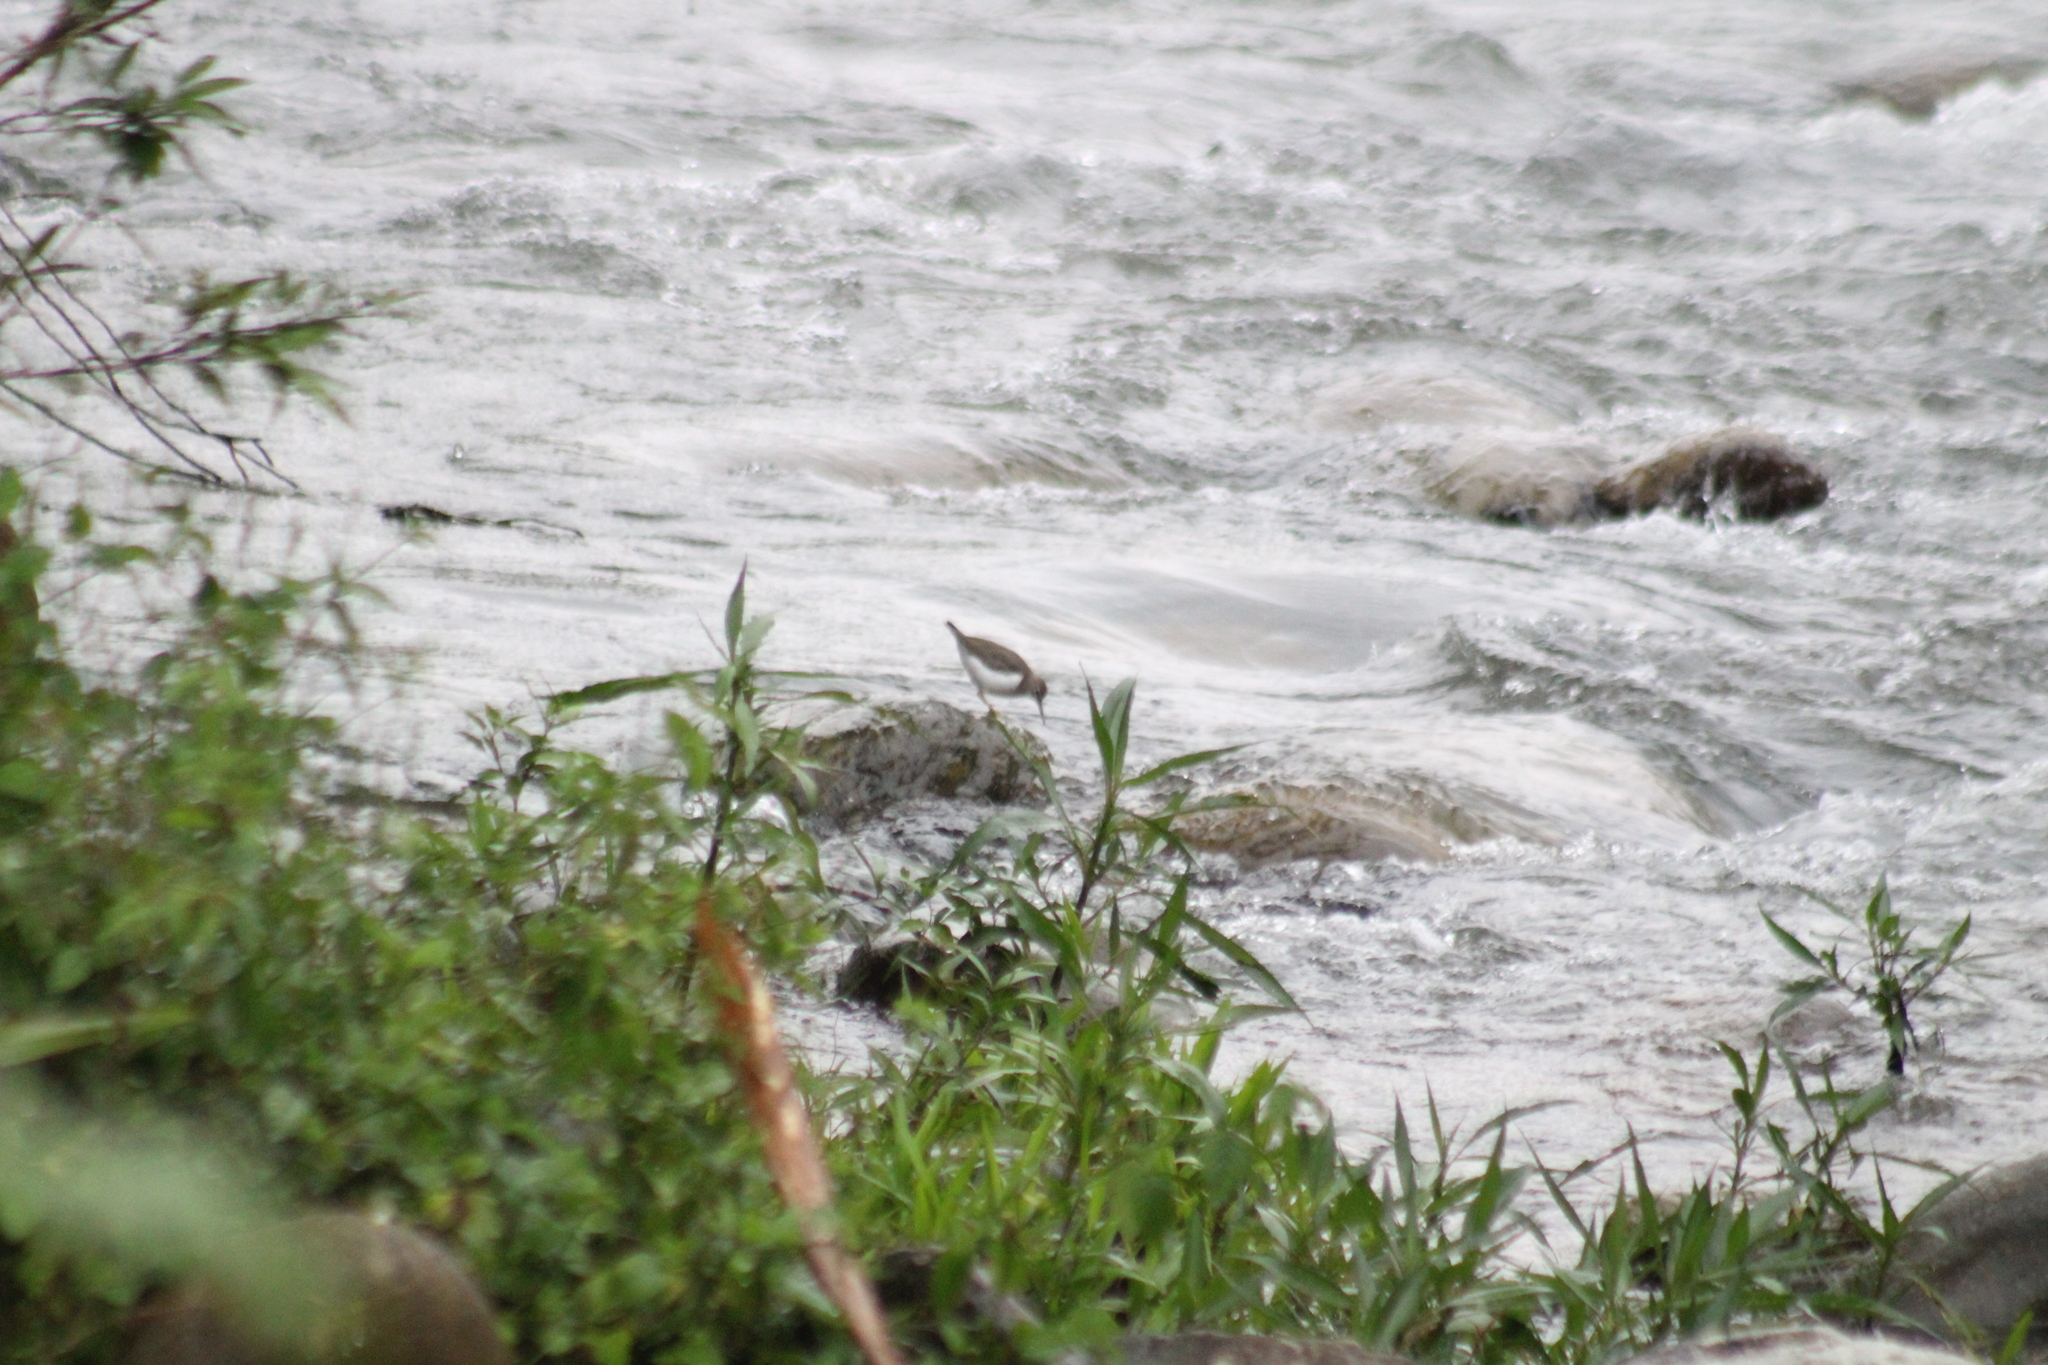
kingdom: Animalia
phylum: Chordata
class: Aves
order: Charadriiformes
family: Scolopacidae
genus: Actitis
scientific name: Actitis macularius
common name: Spotted sandpiper
